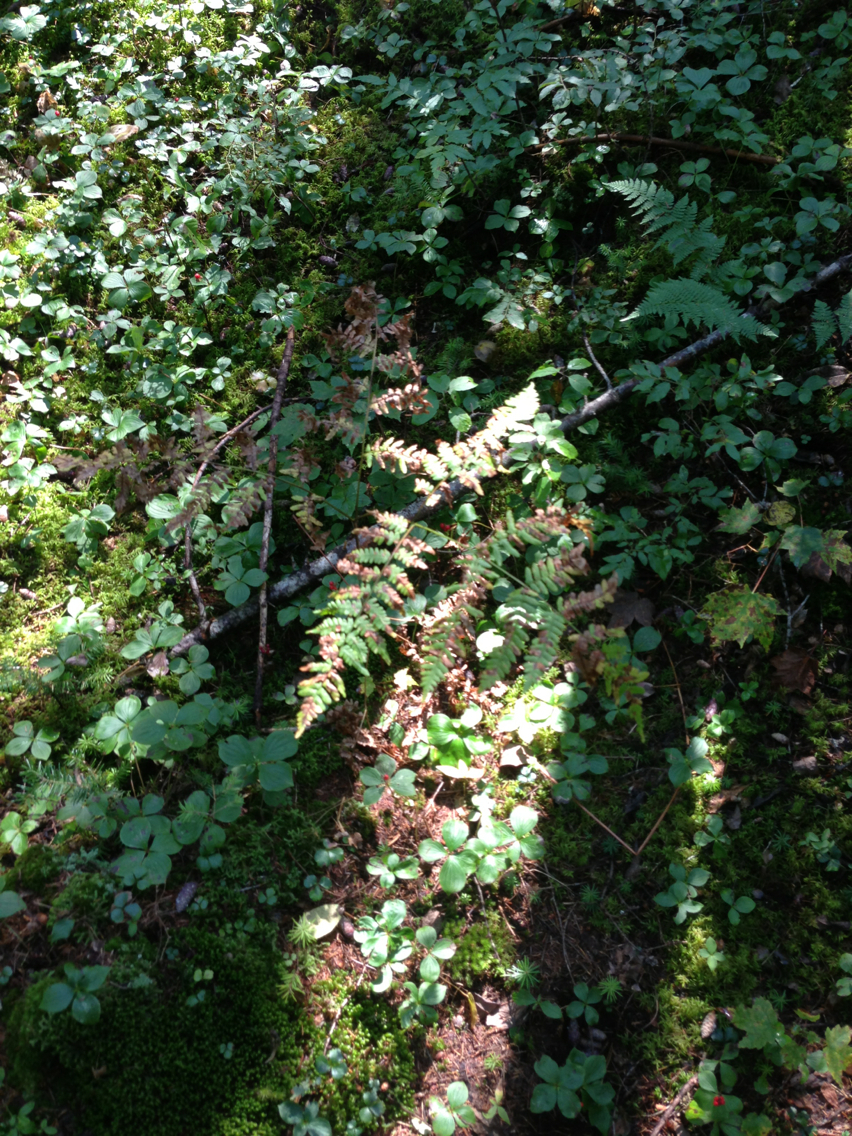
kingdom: Plantae
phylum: Tracheophyta
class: Polypodiopsida
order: Polypodiales
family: Dennstaedtiaceae
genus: Pteridium
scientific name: Pteridium aquilinum
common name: Bracken
